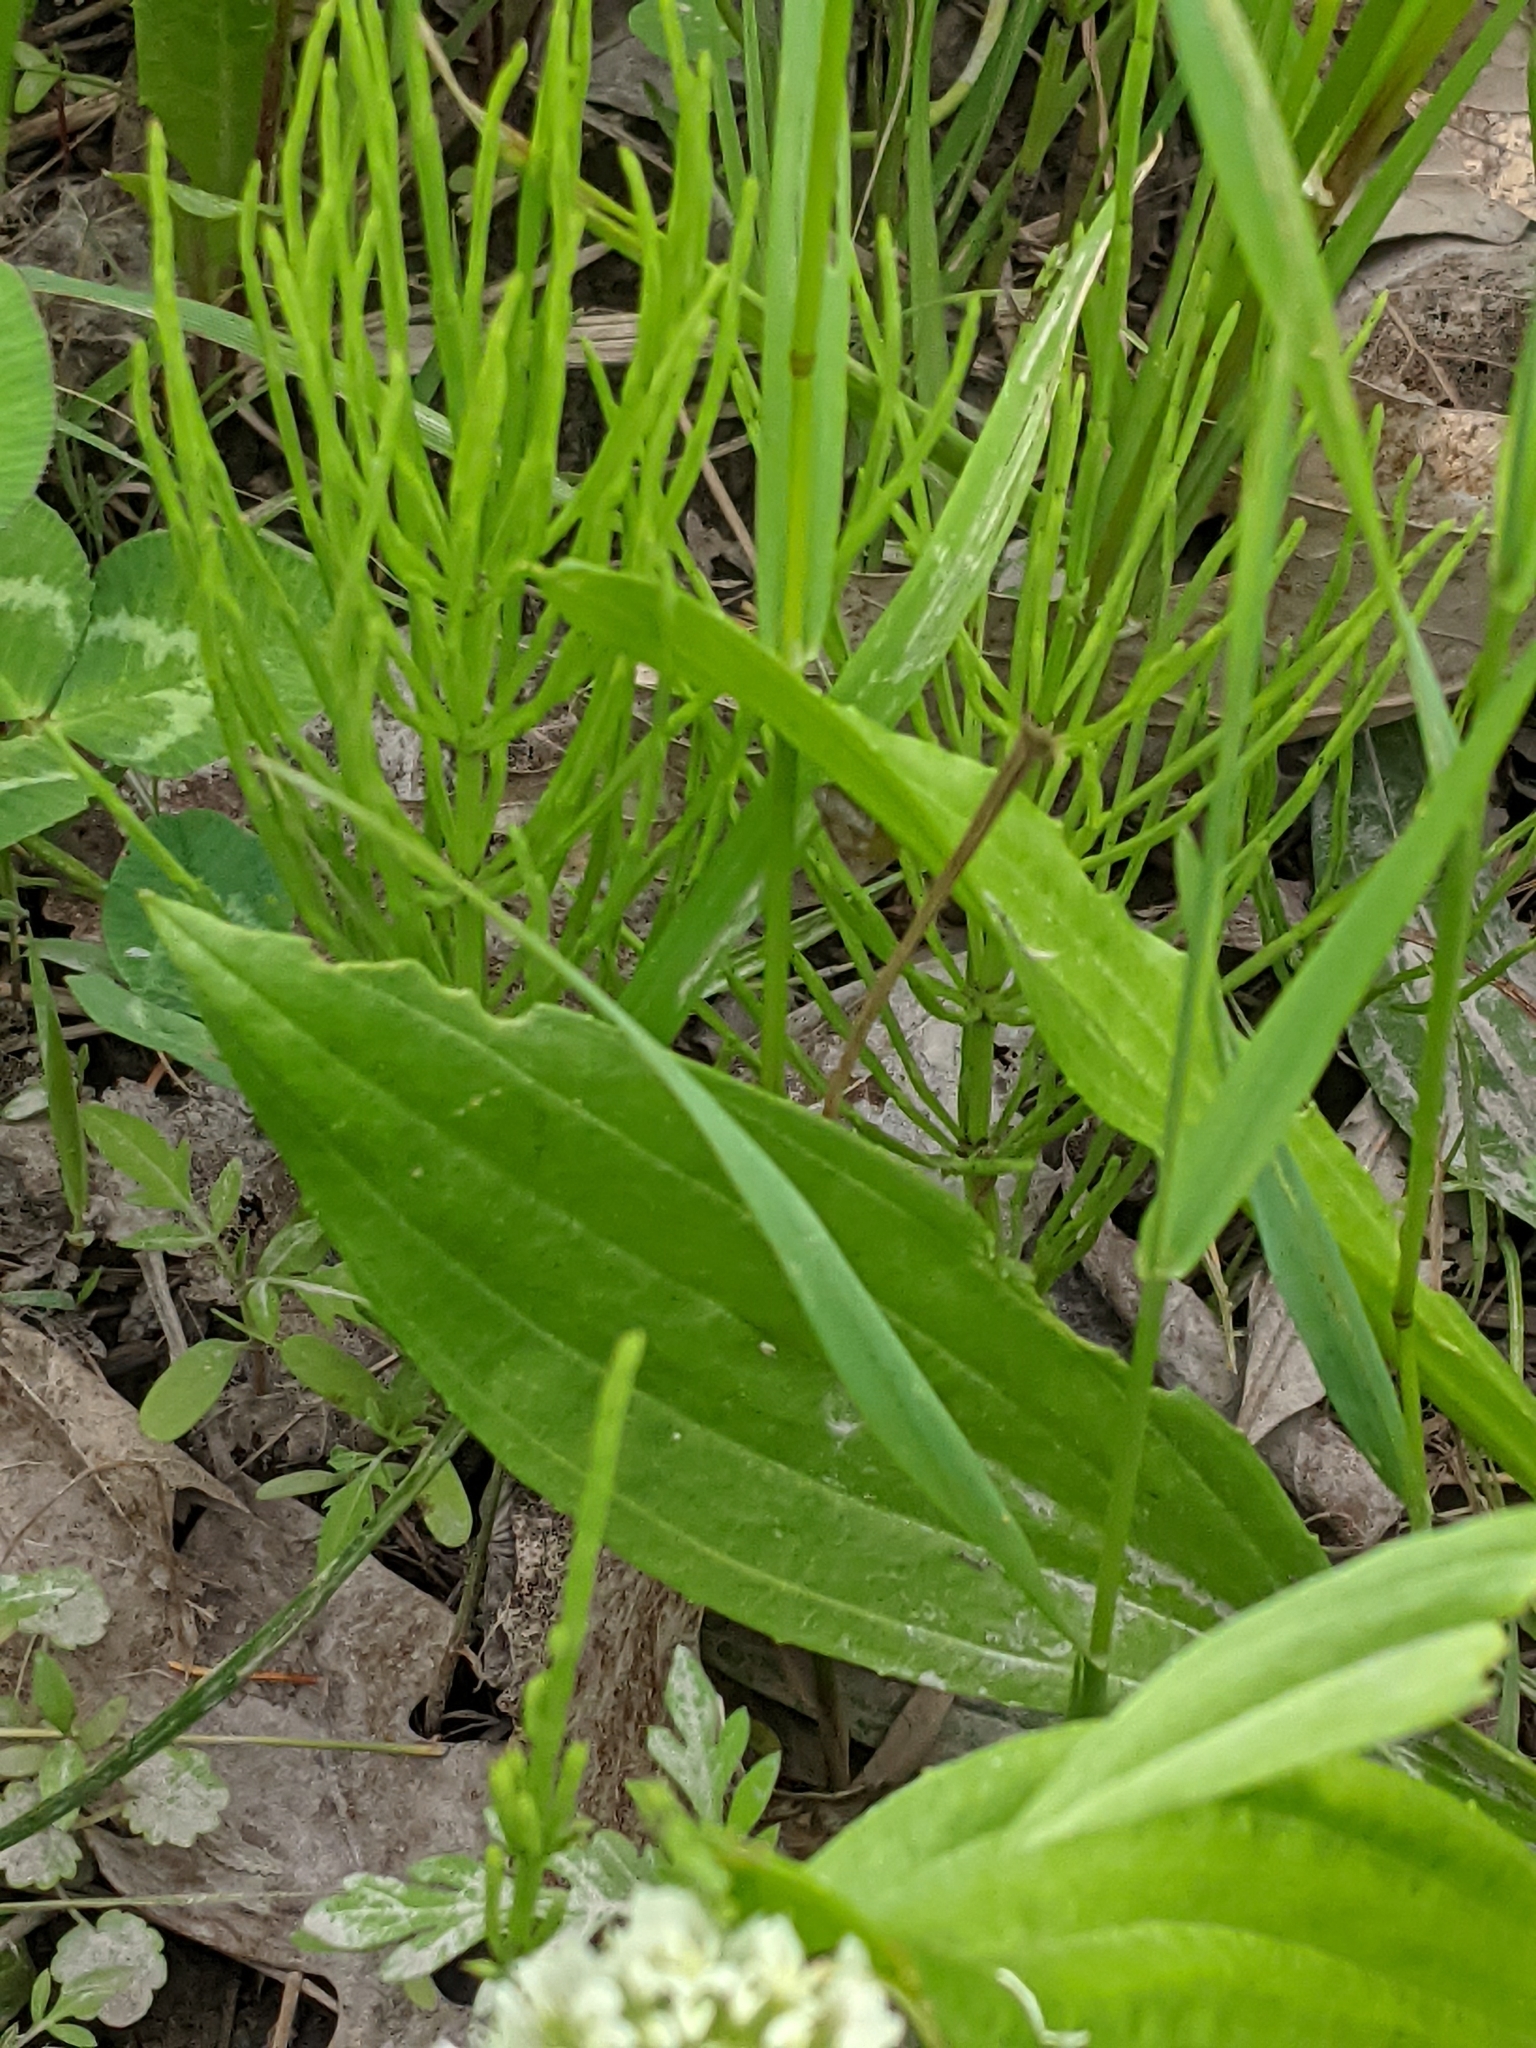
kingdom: Plantae
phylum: Tracheophyta
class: Magnoliopsida
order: Lamiales
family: Plantaginaceae
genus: Plantago
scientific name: Plantago lanceolata
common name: Ribwort plantain
